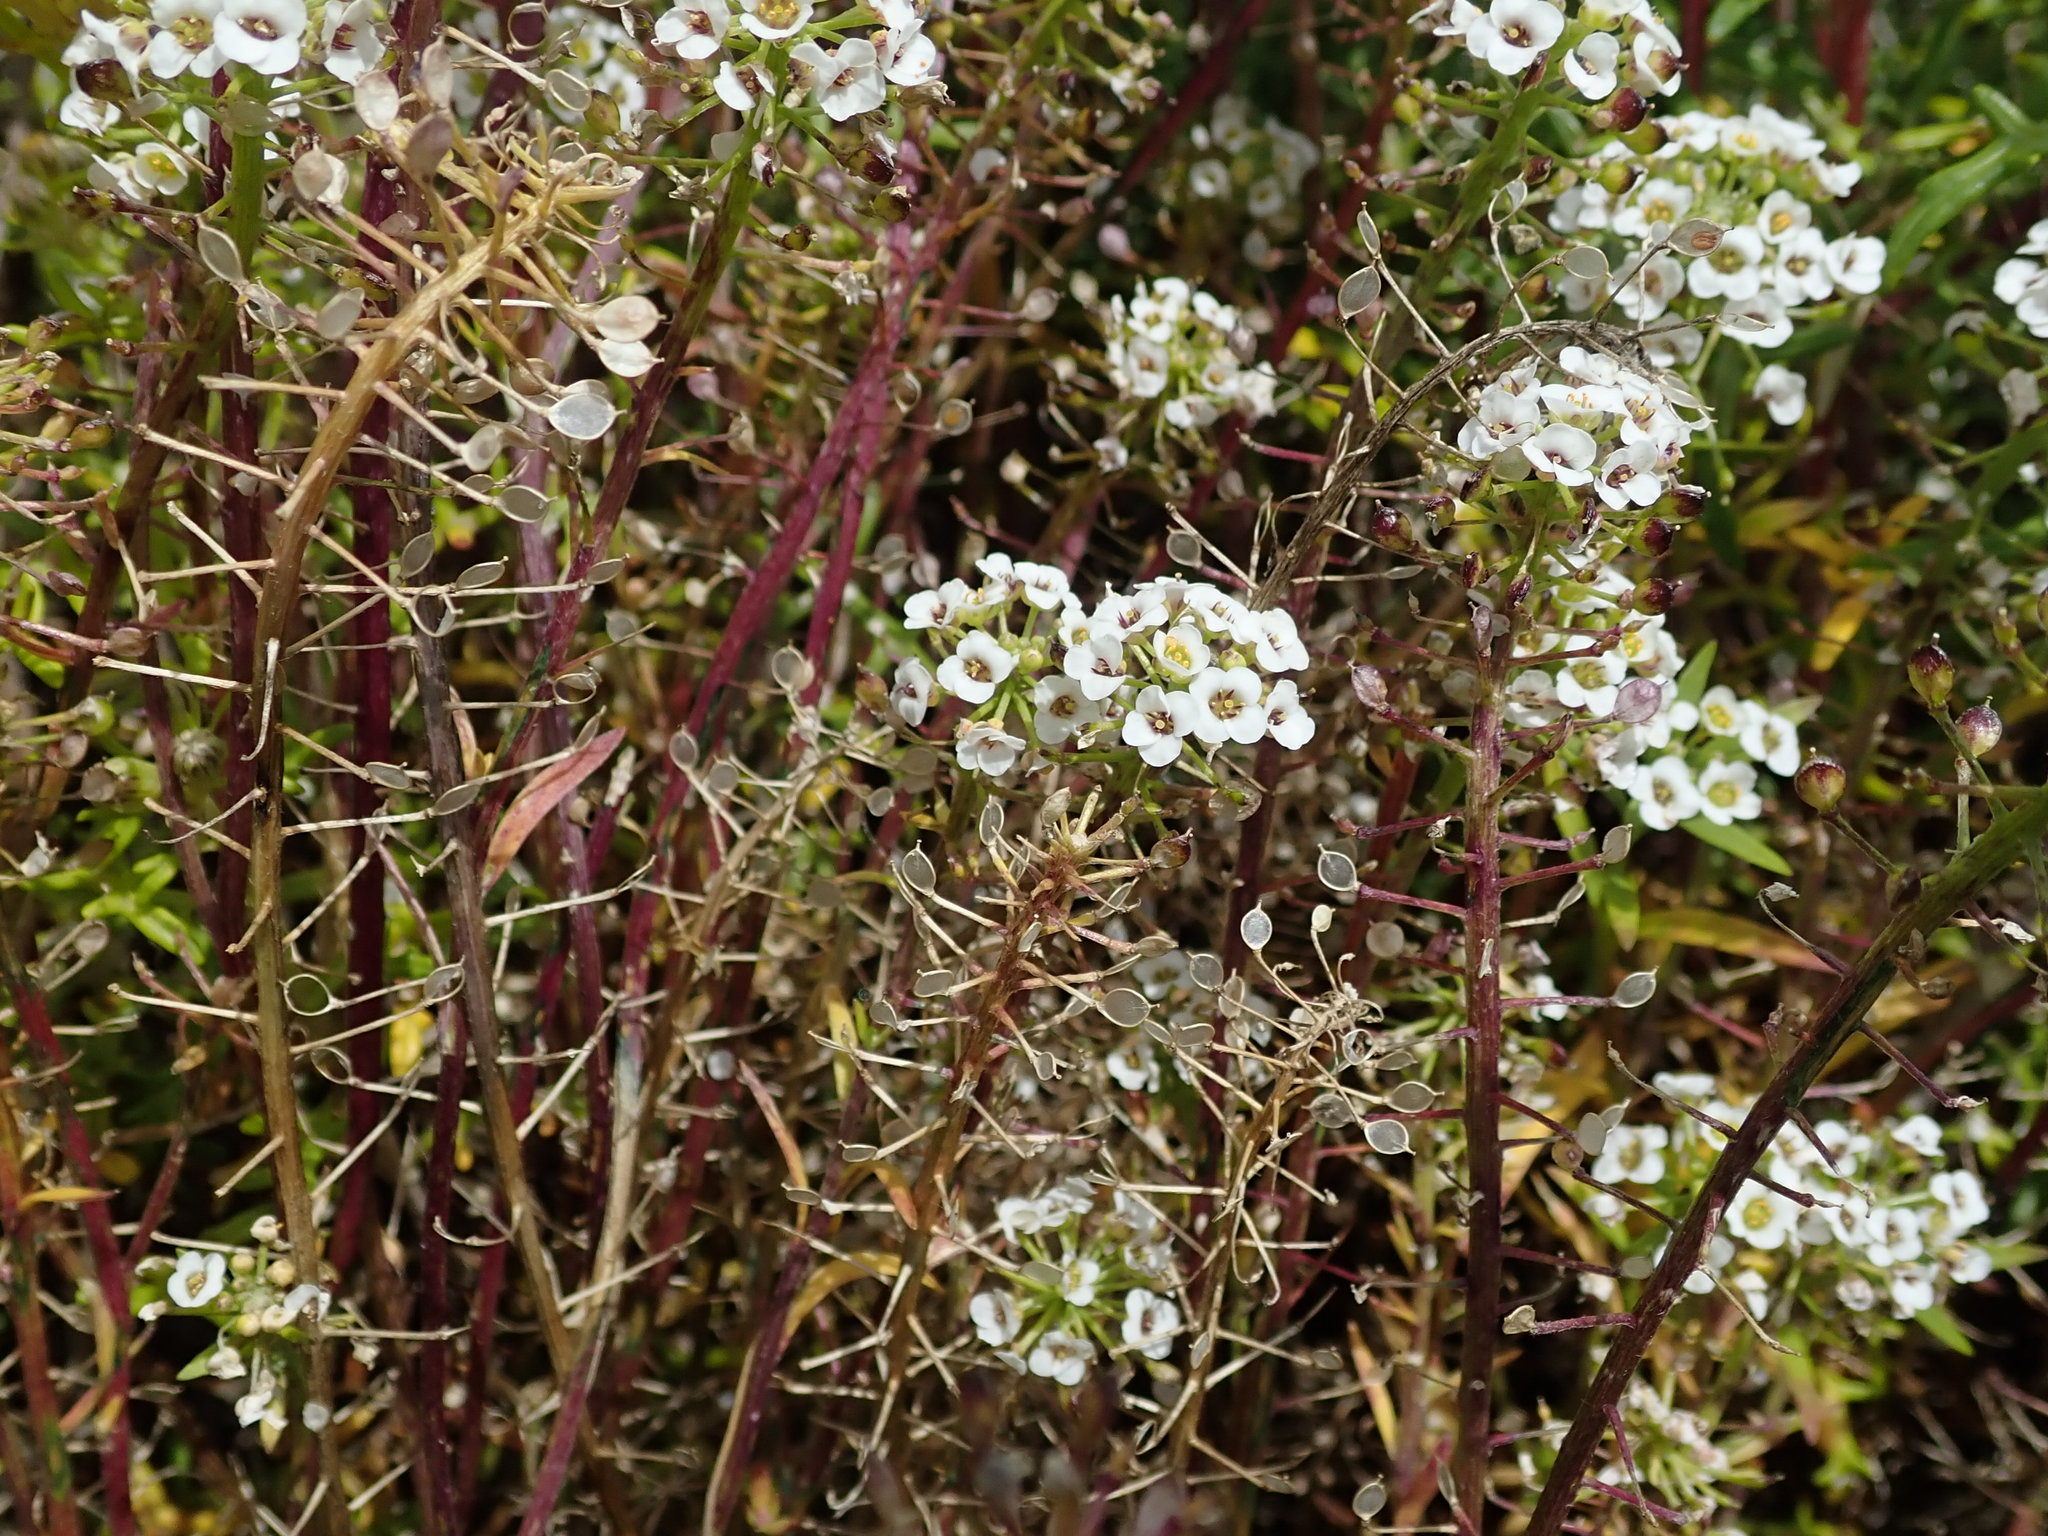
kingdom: Plantae
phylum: Tracheophyta
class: Magnoliopsida
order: Brassicales
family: Brassicaceae
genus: Lobularia
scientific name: Lobularia maritima
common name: Sweet alison
